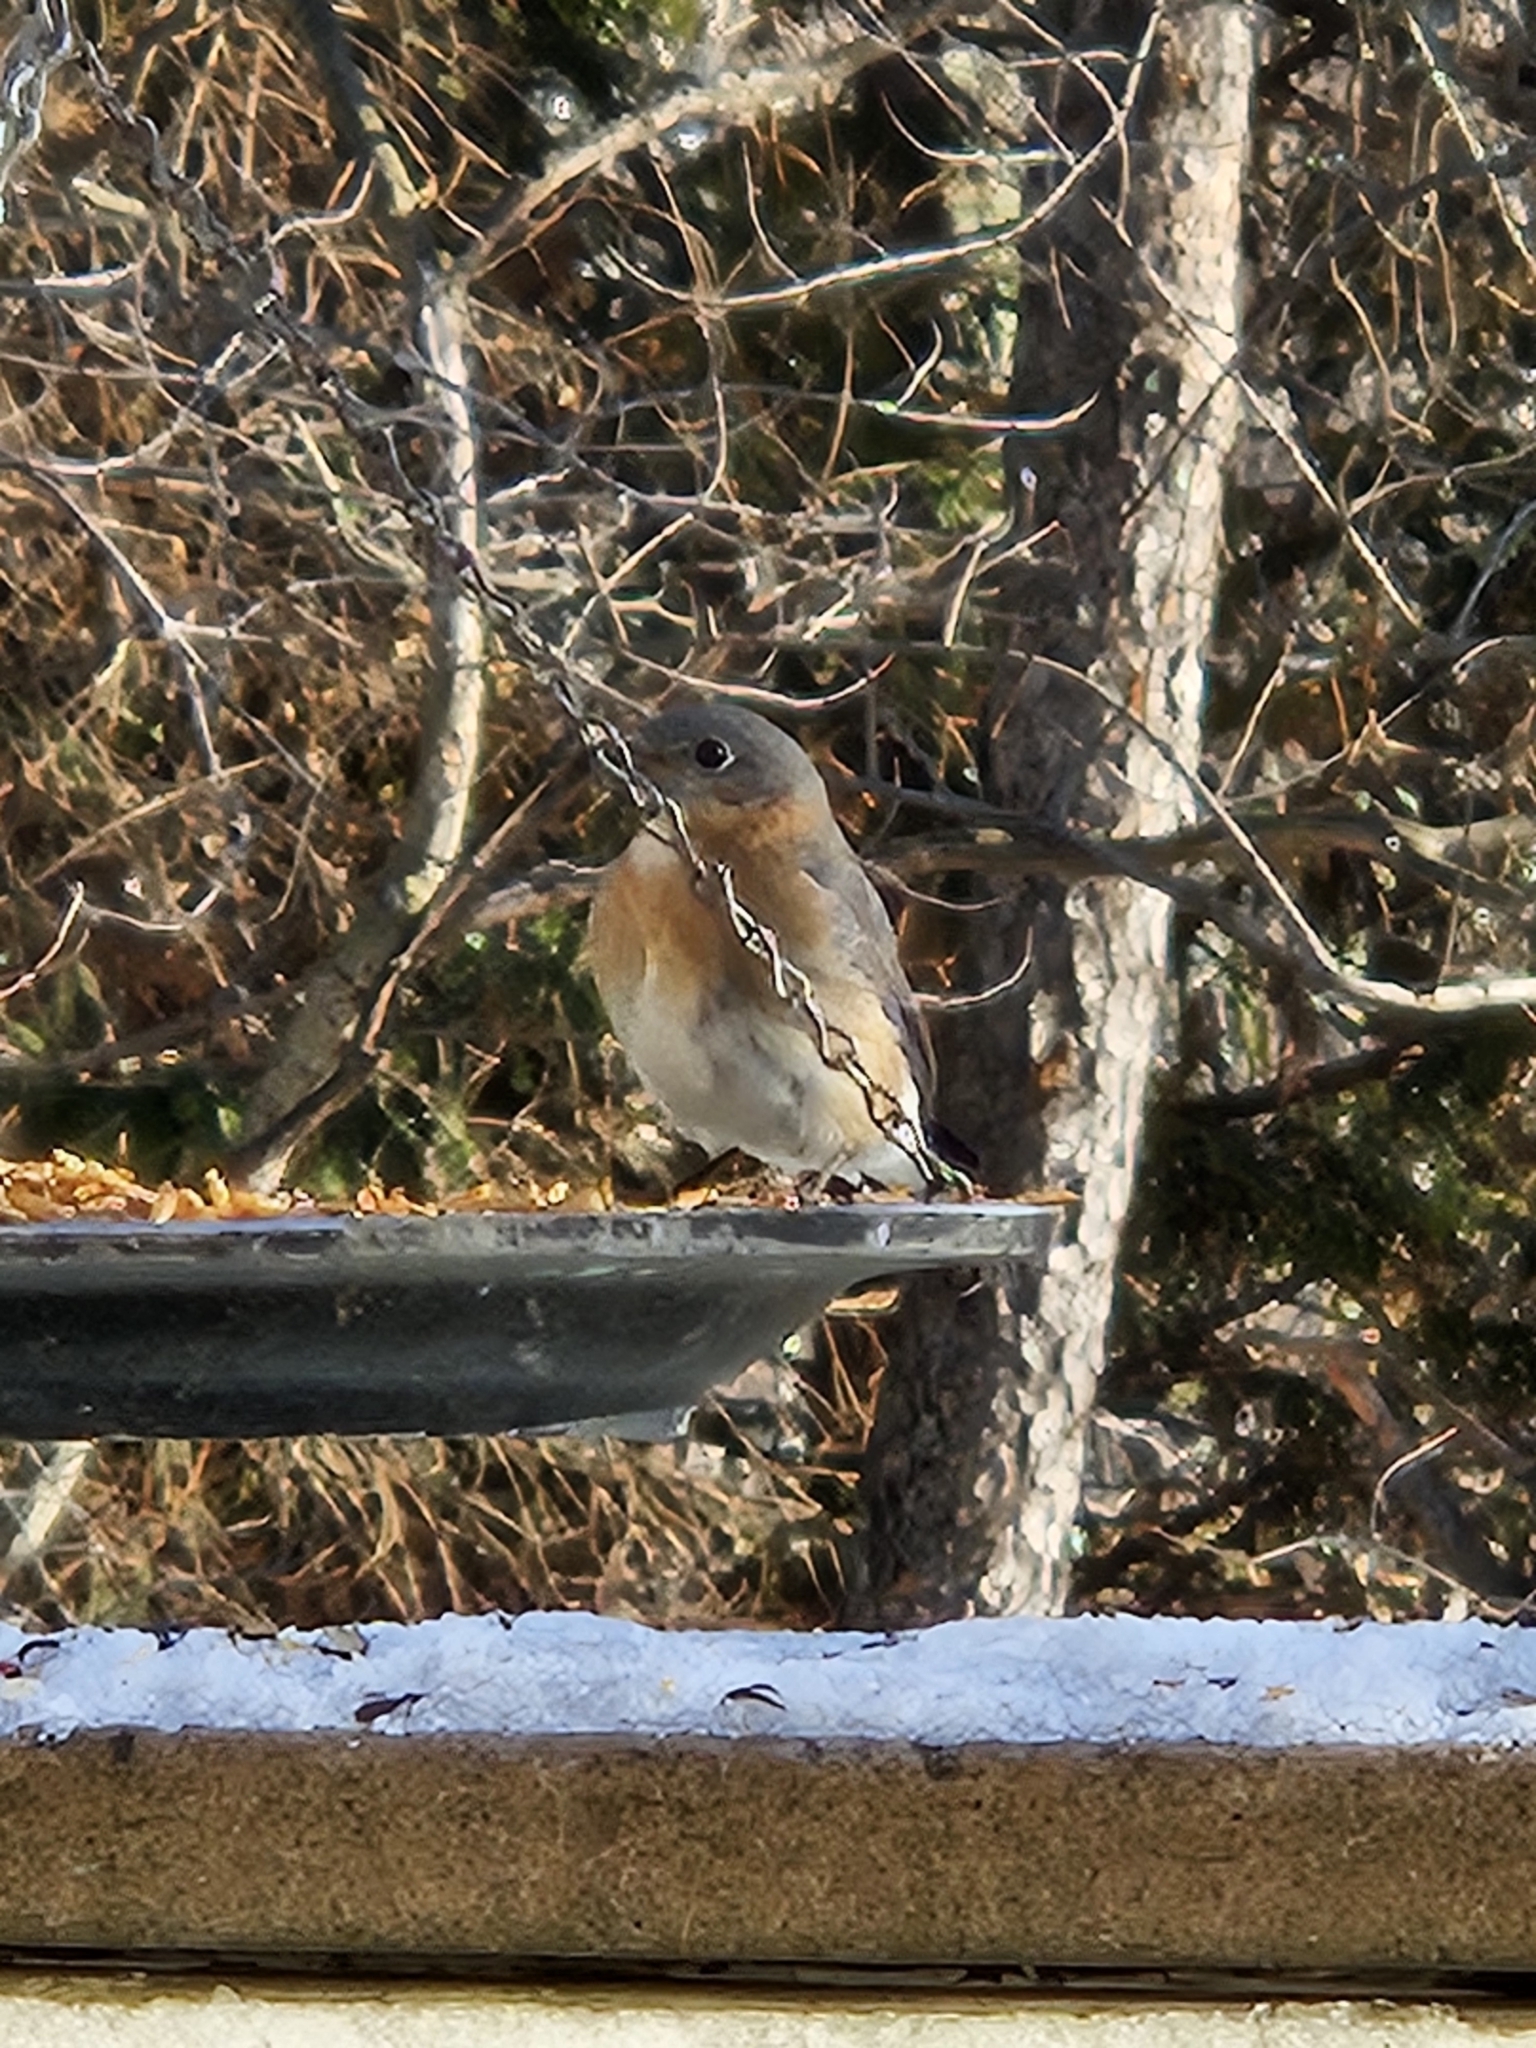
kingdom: Animalia
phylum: Chordata
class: Aves
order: Passeriformes
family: Turdidae
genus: Sialia
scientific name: Sialia sialis
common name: Eastern bluebird
